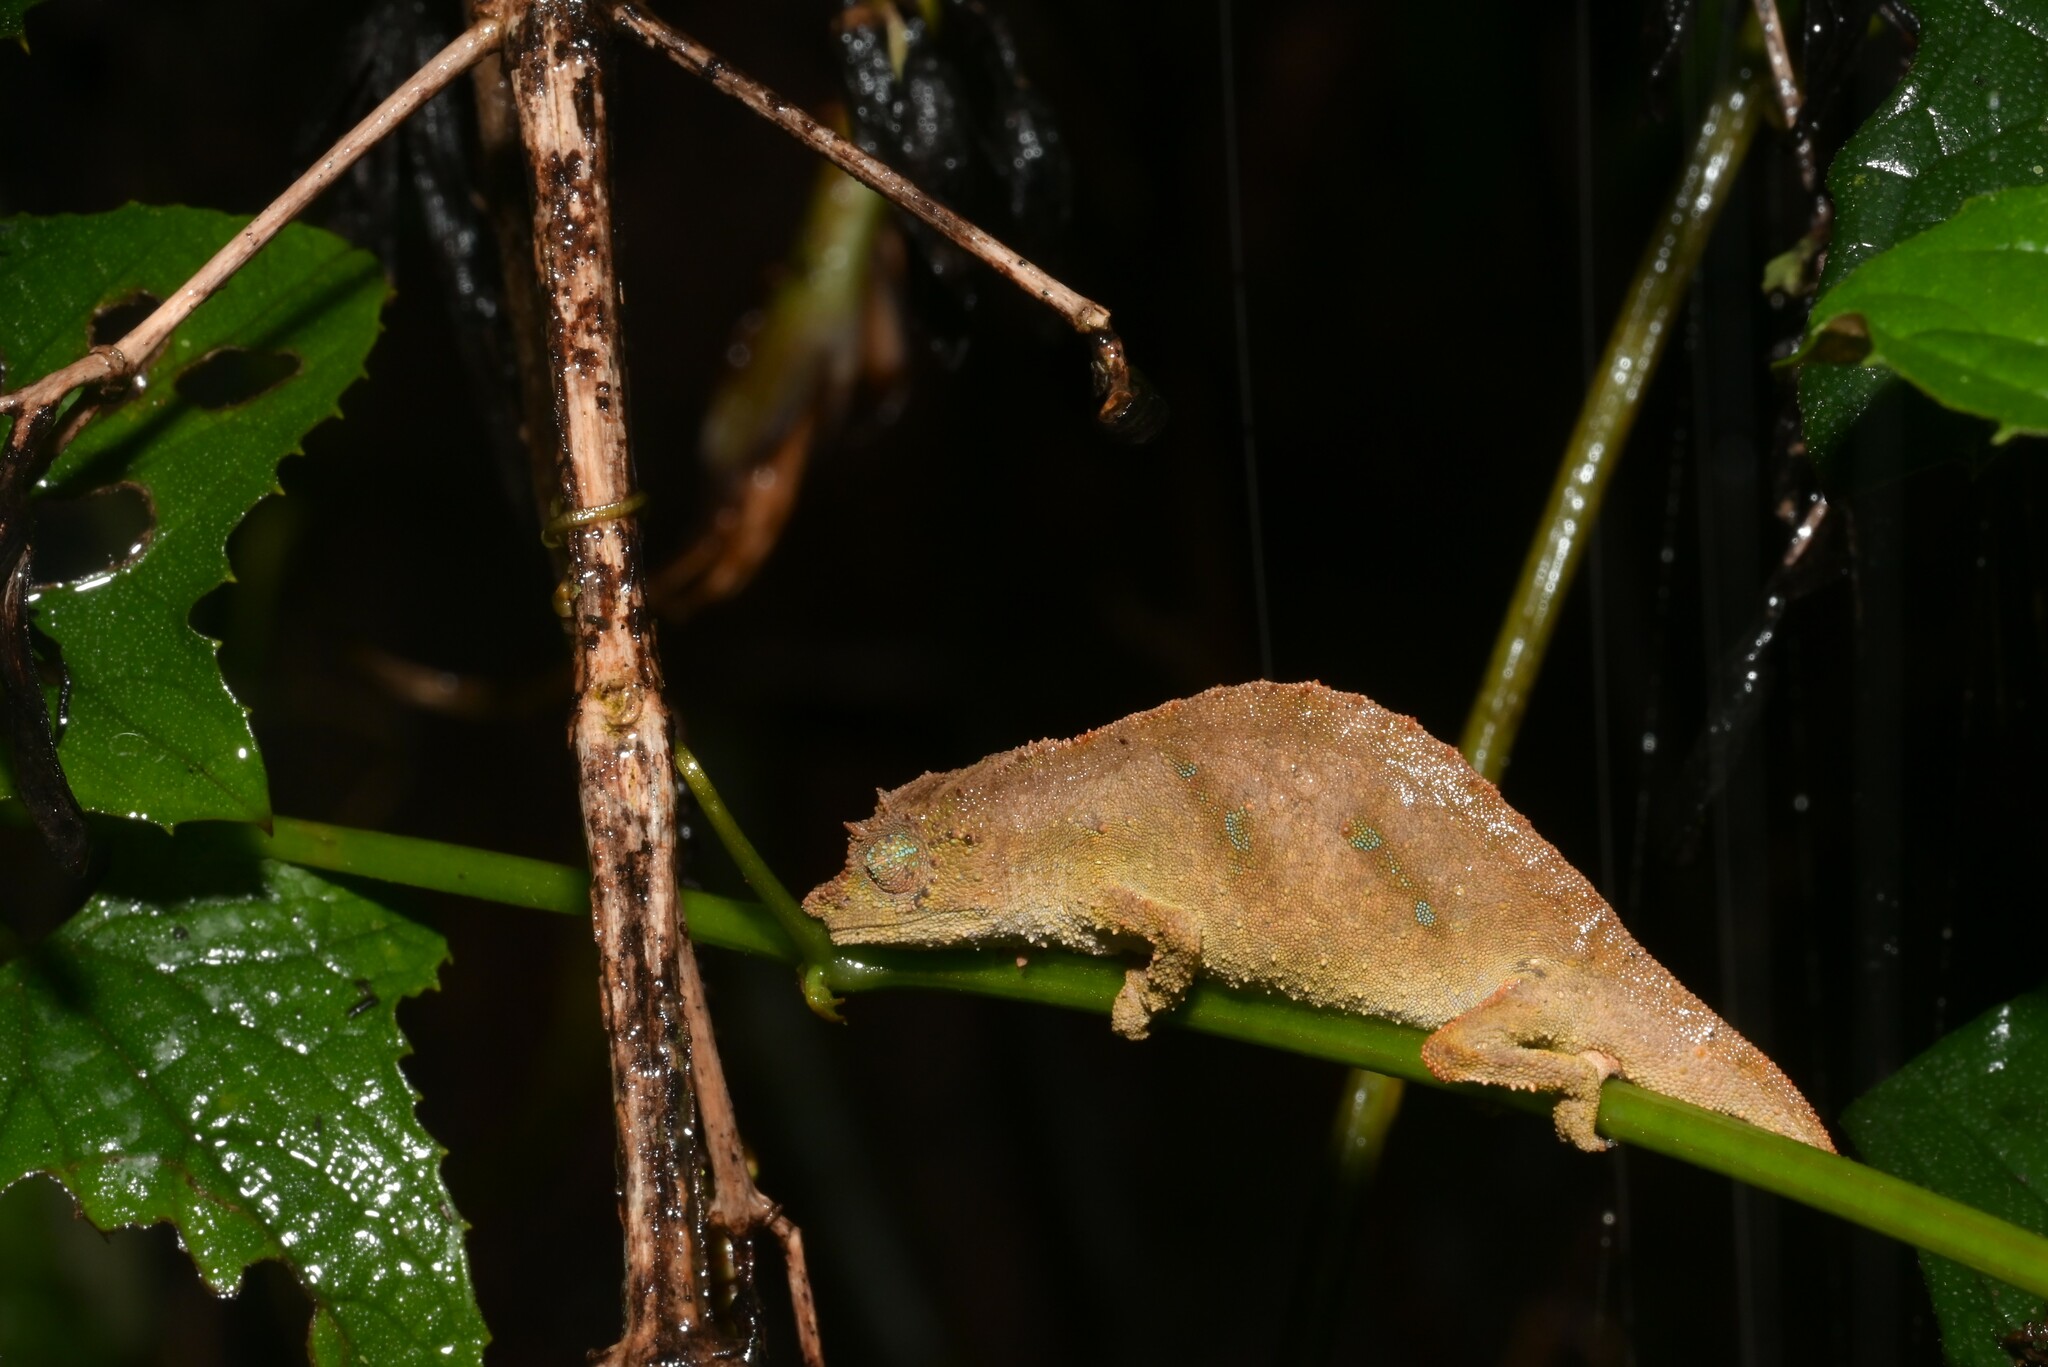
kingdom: Animalia
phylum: Chordata
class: Squamata
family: Chamaeleonidae
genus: Rhampholeon
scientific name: Rhampholeon nchisiensis
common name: South african stumptail chameleon
